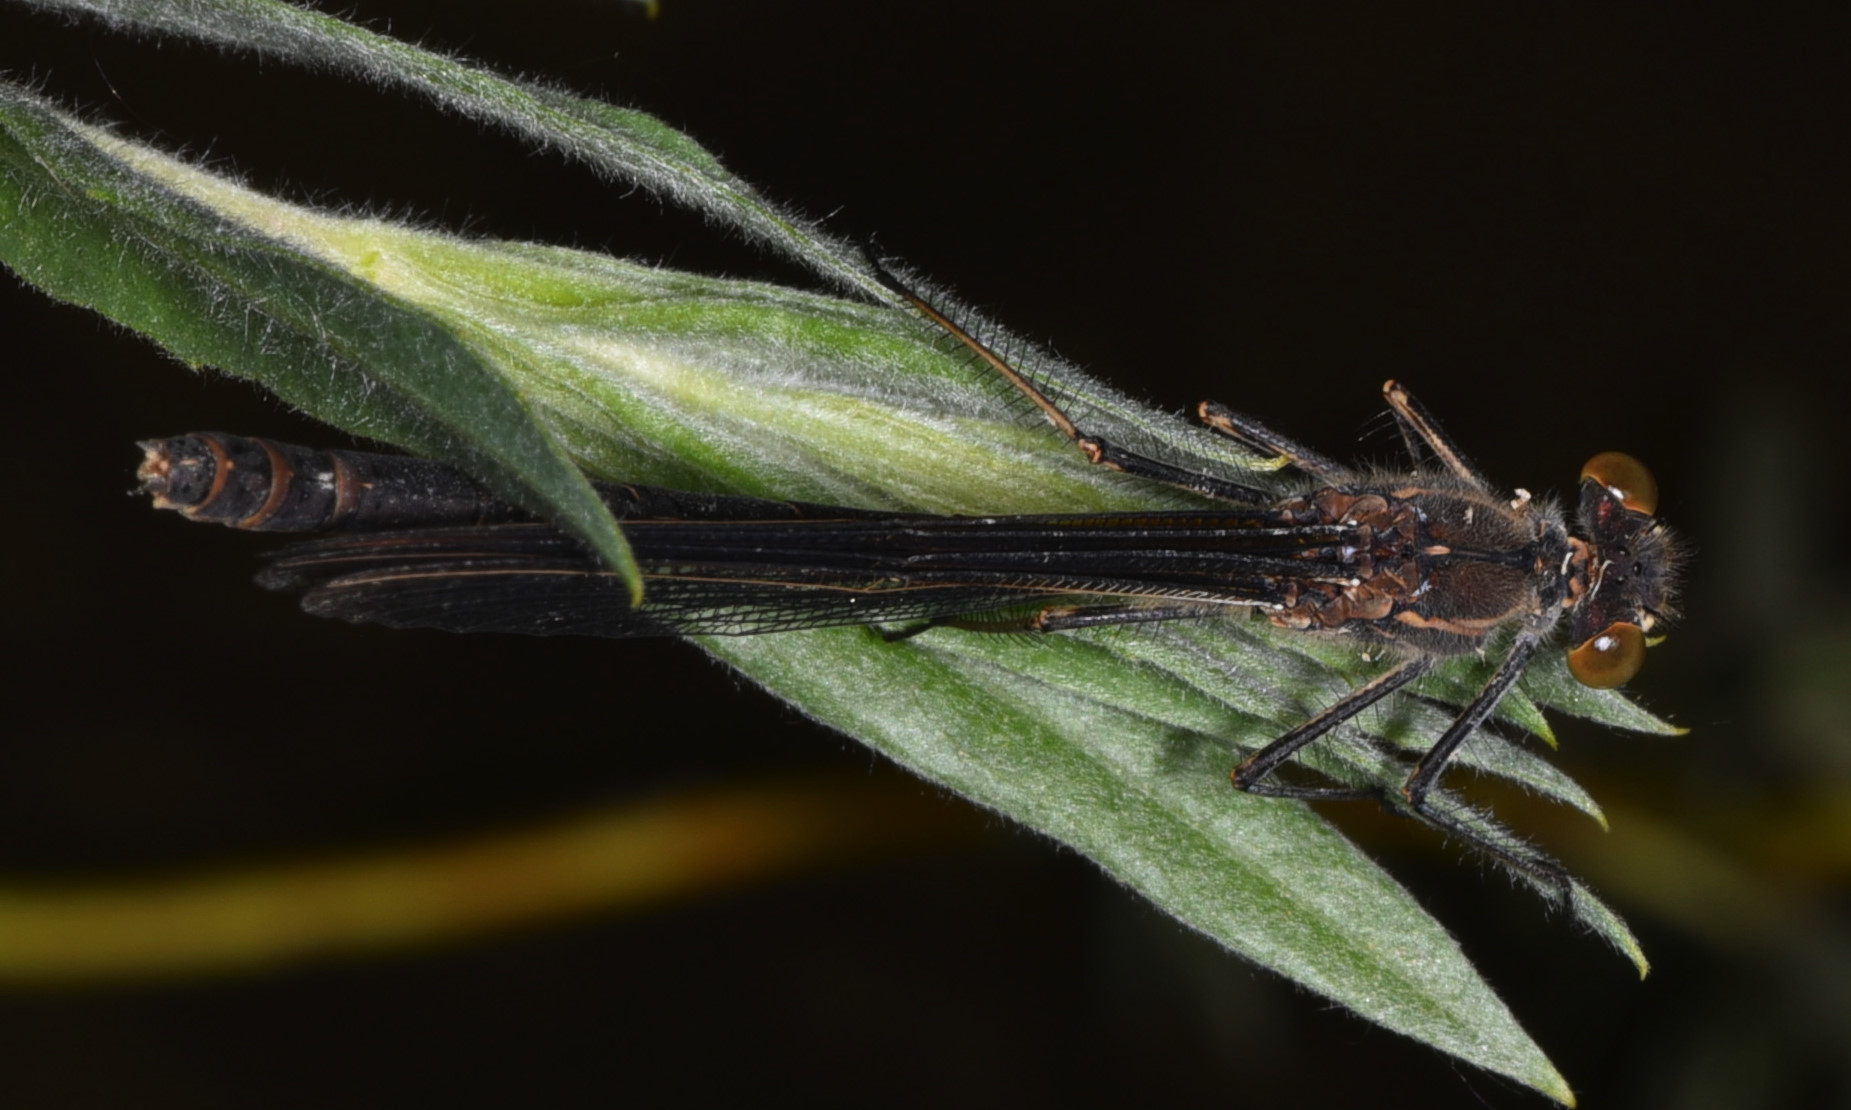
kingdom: Animalia
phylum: Arthropoda
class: Insecta
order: Odonata
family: Calopterygidae
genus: Hetaerina
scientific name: Hetaerina americana
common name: American rubyspot
